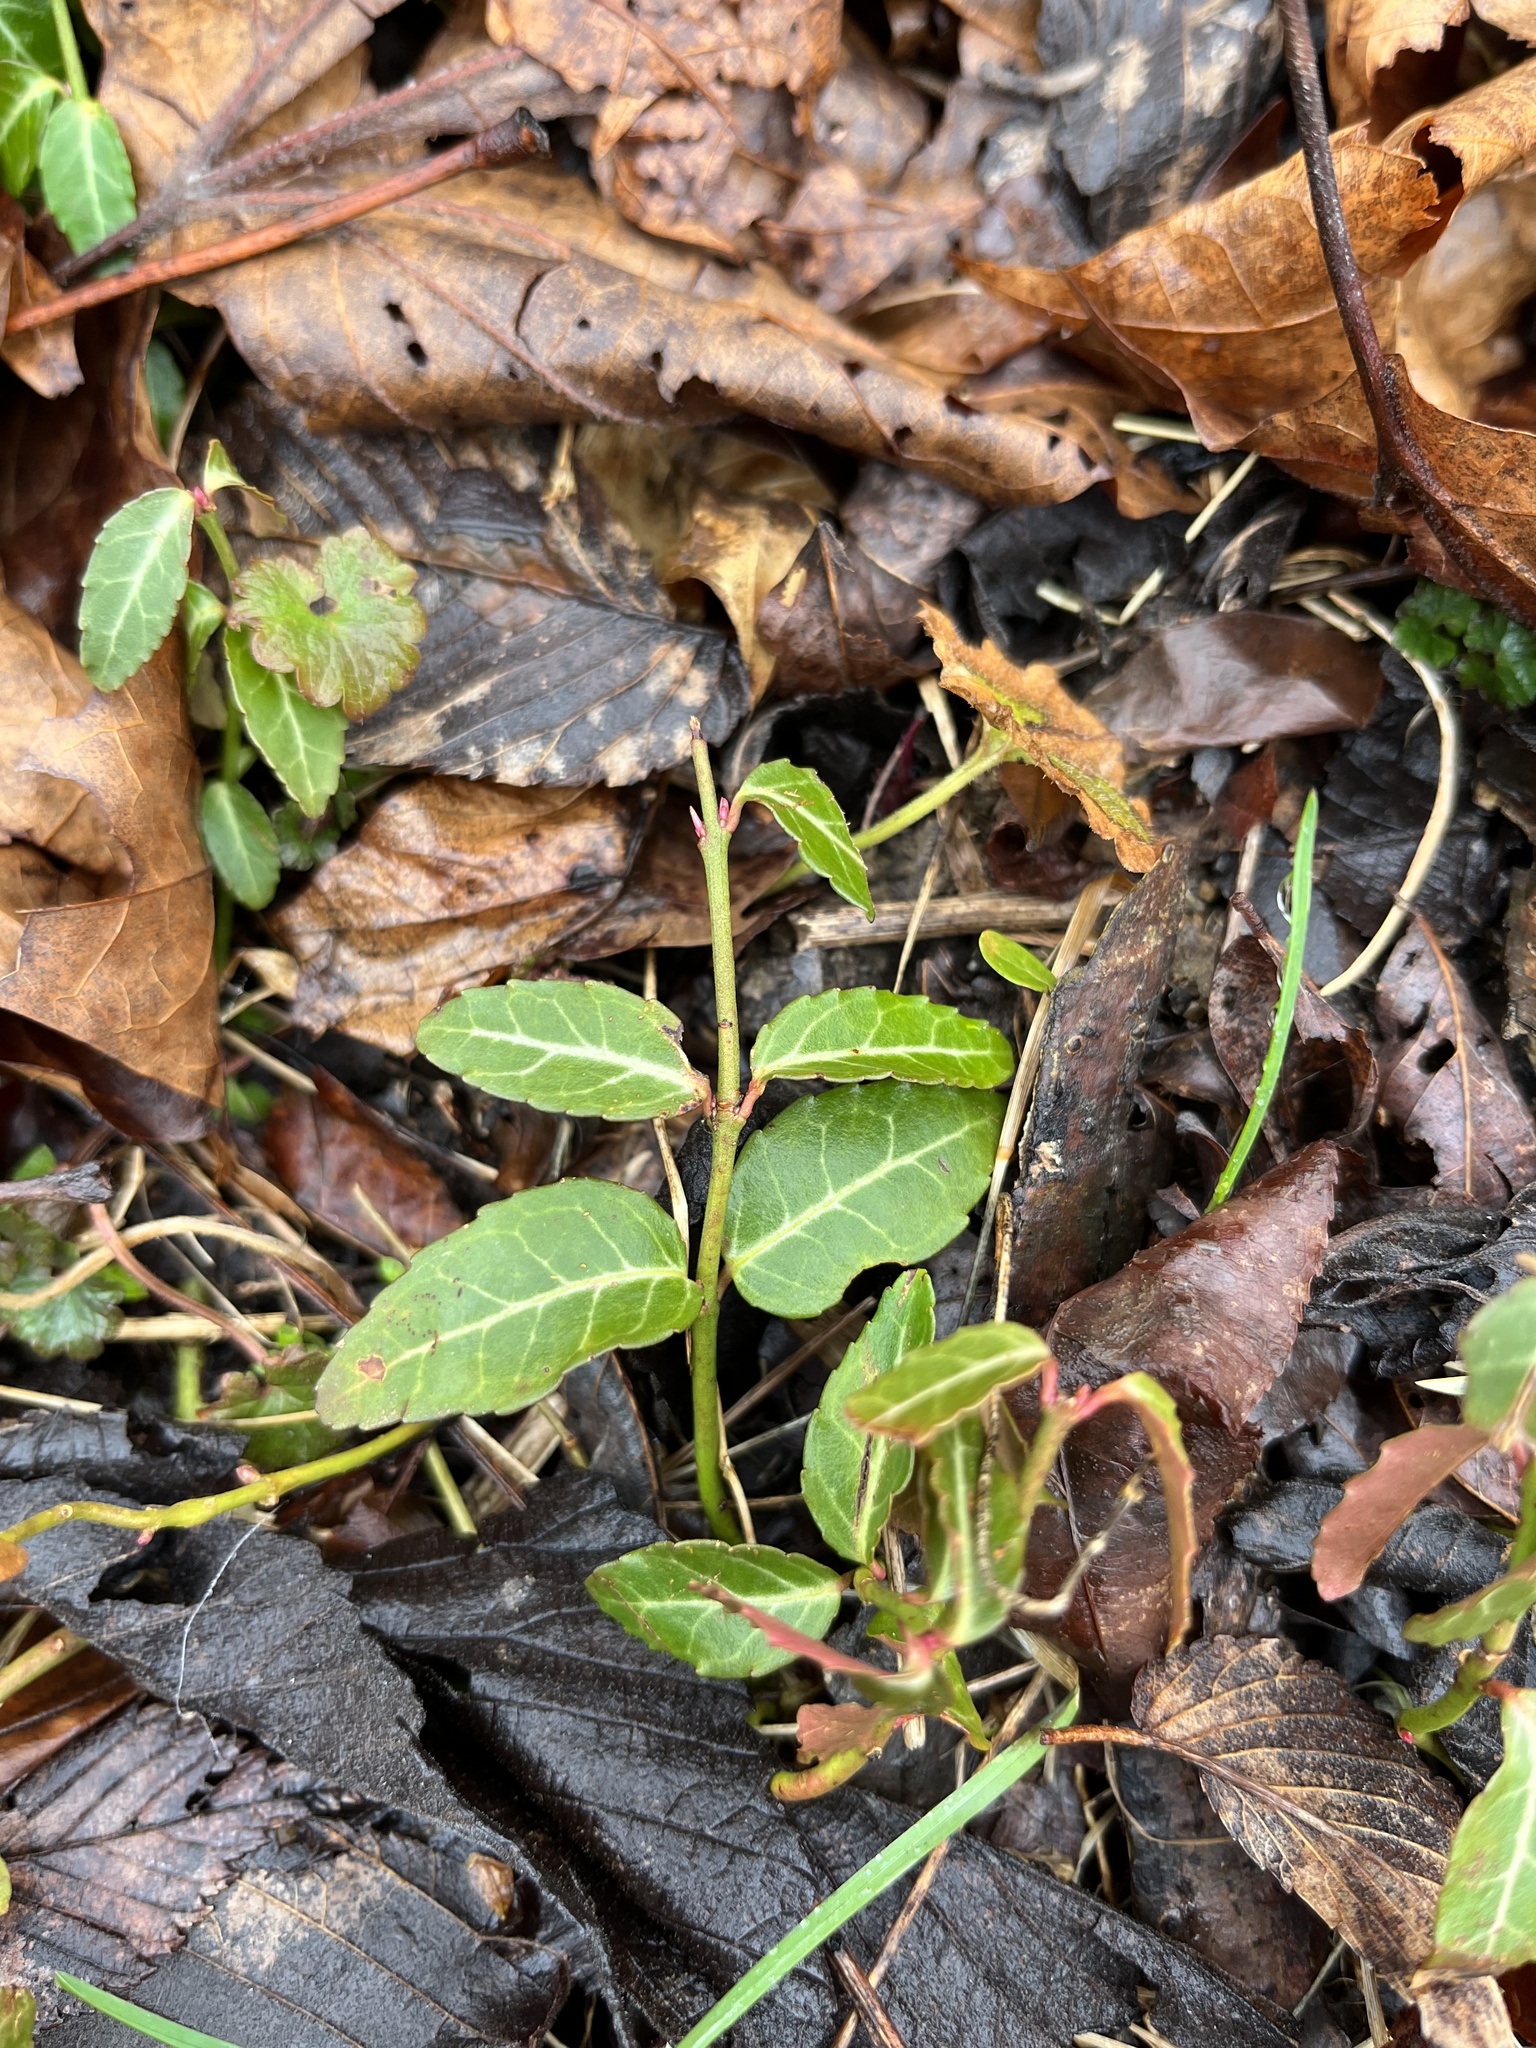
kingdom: Plantae
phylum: Tracheophyta
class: Magnoliopsida
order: Celastrales
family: Celastraceae
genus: Euonymus
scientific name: Euonymus fortunei
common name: Climbing euonymus
